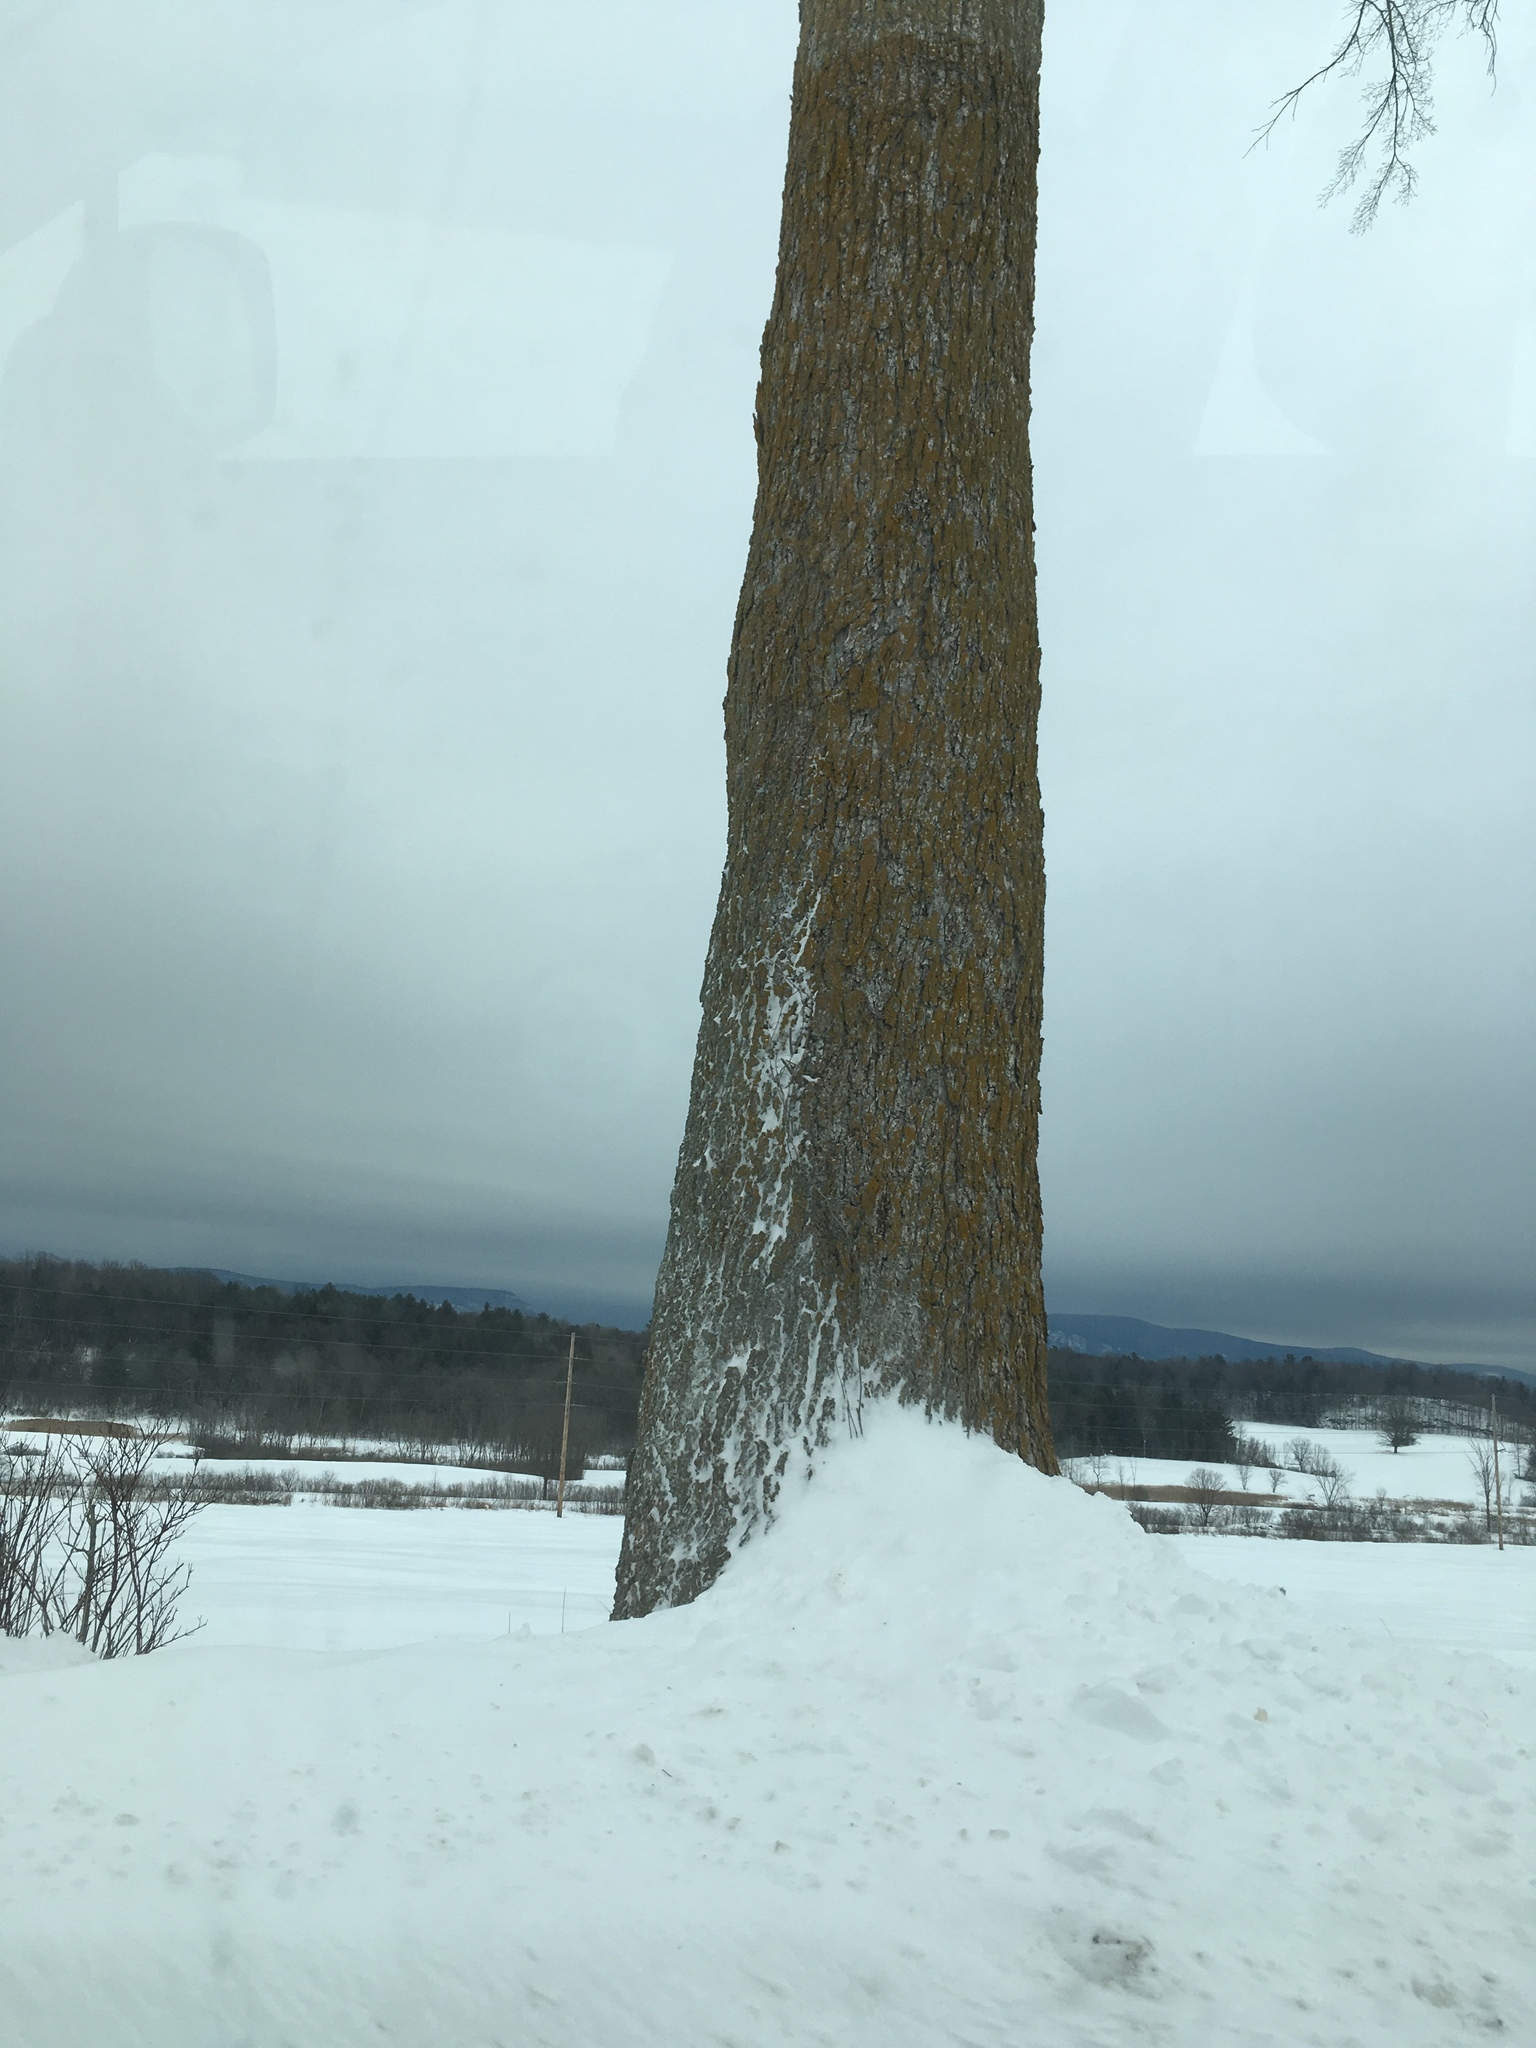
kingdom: Plantae
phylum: Tracheophyta
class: Magnoliopsida
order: Rosales
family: Ulmaceae
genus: Ulmus
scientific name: Ulmus americana
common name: American elm
